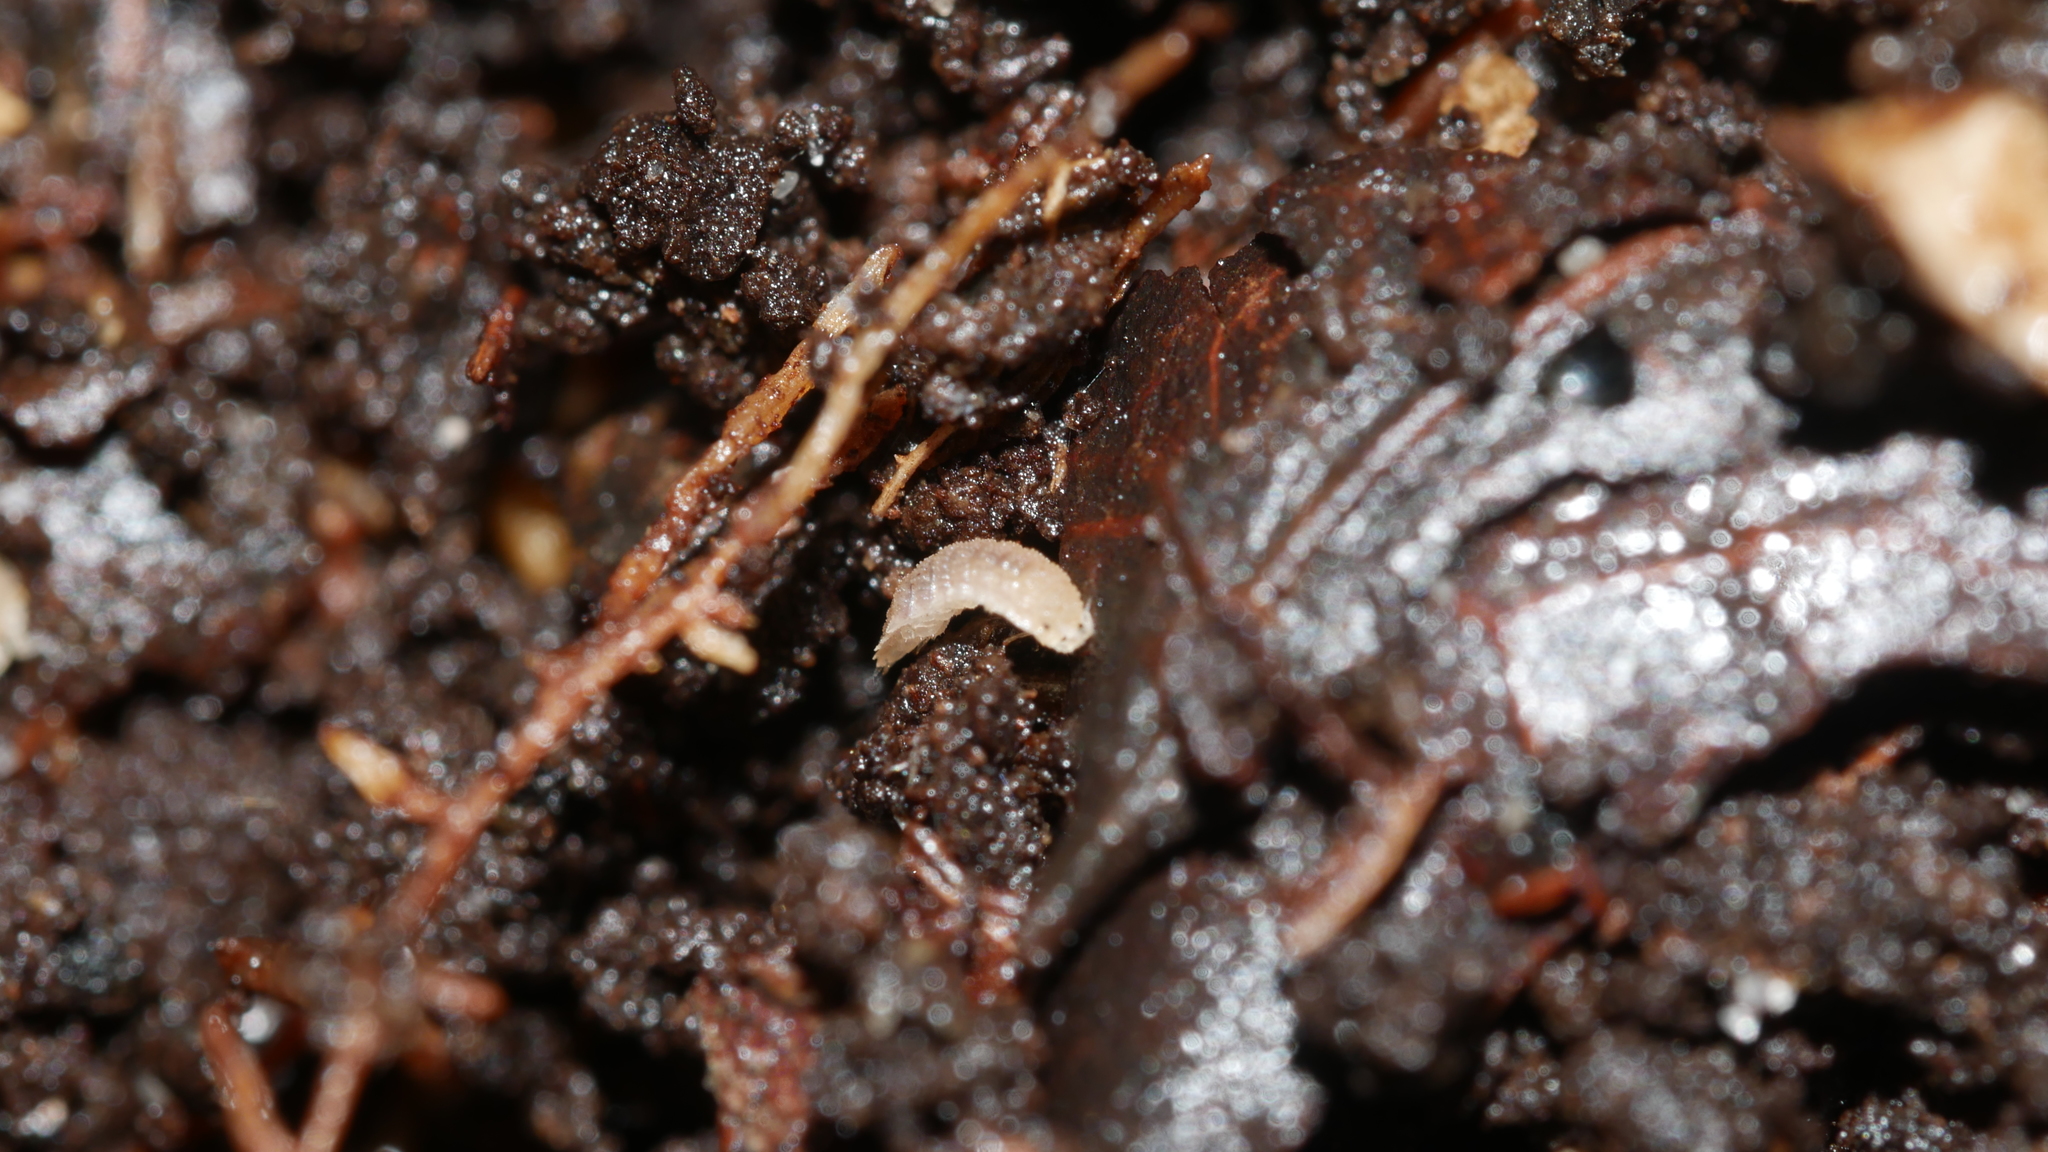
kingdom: Animalia
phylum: Arthropoda
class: Malacostraca
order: Isopoda
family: Trichoniscidae
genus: Haplophthalmus
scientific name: Haplophthalmus danicus
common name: Pillbug
